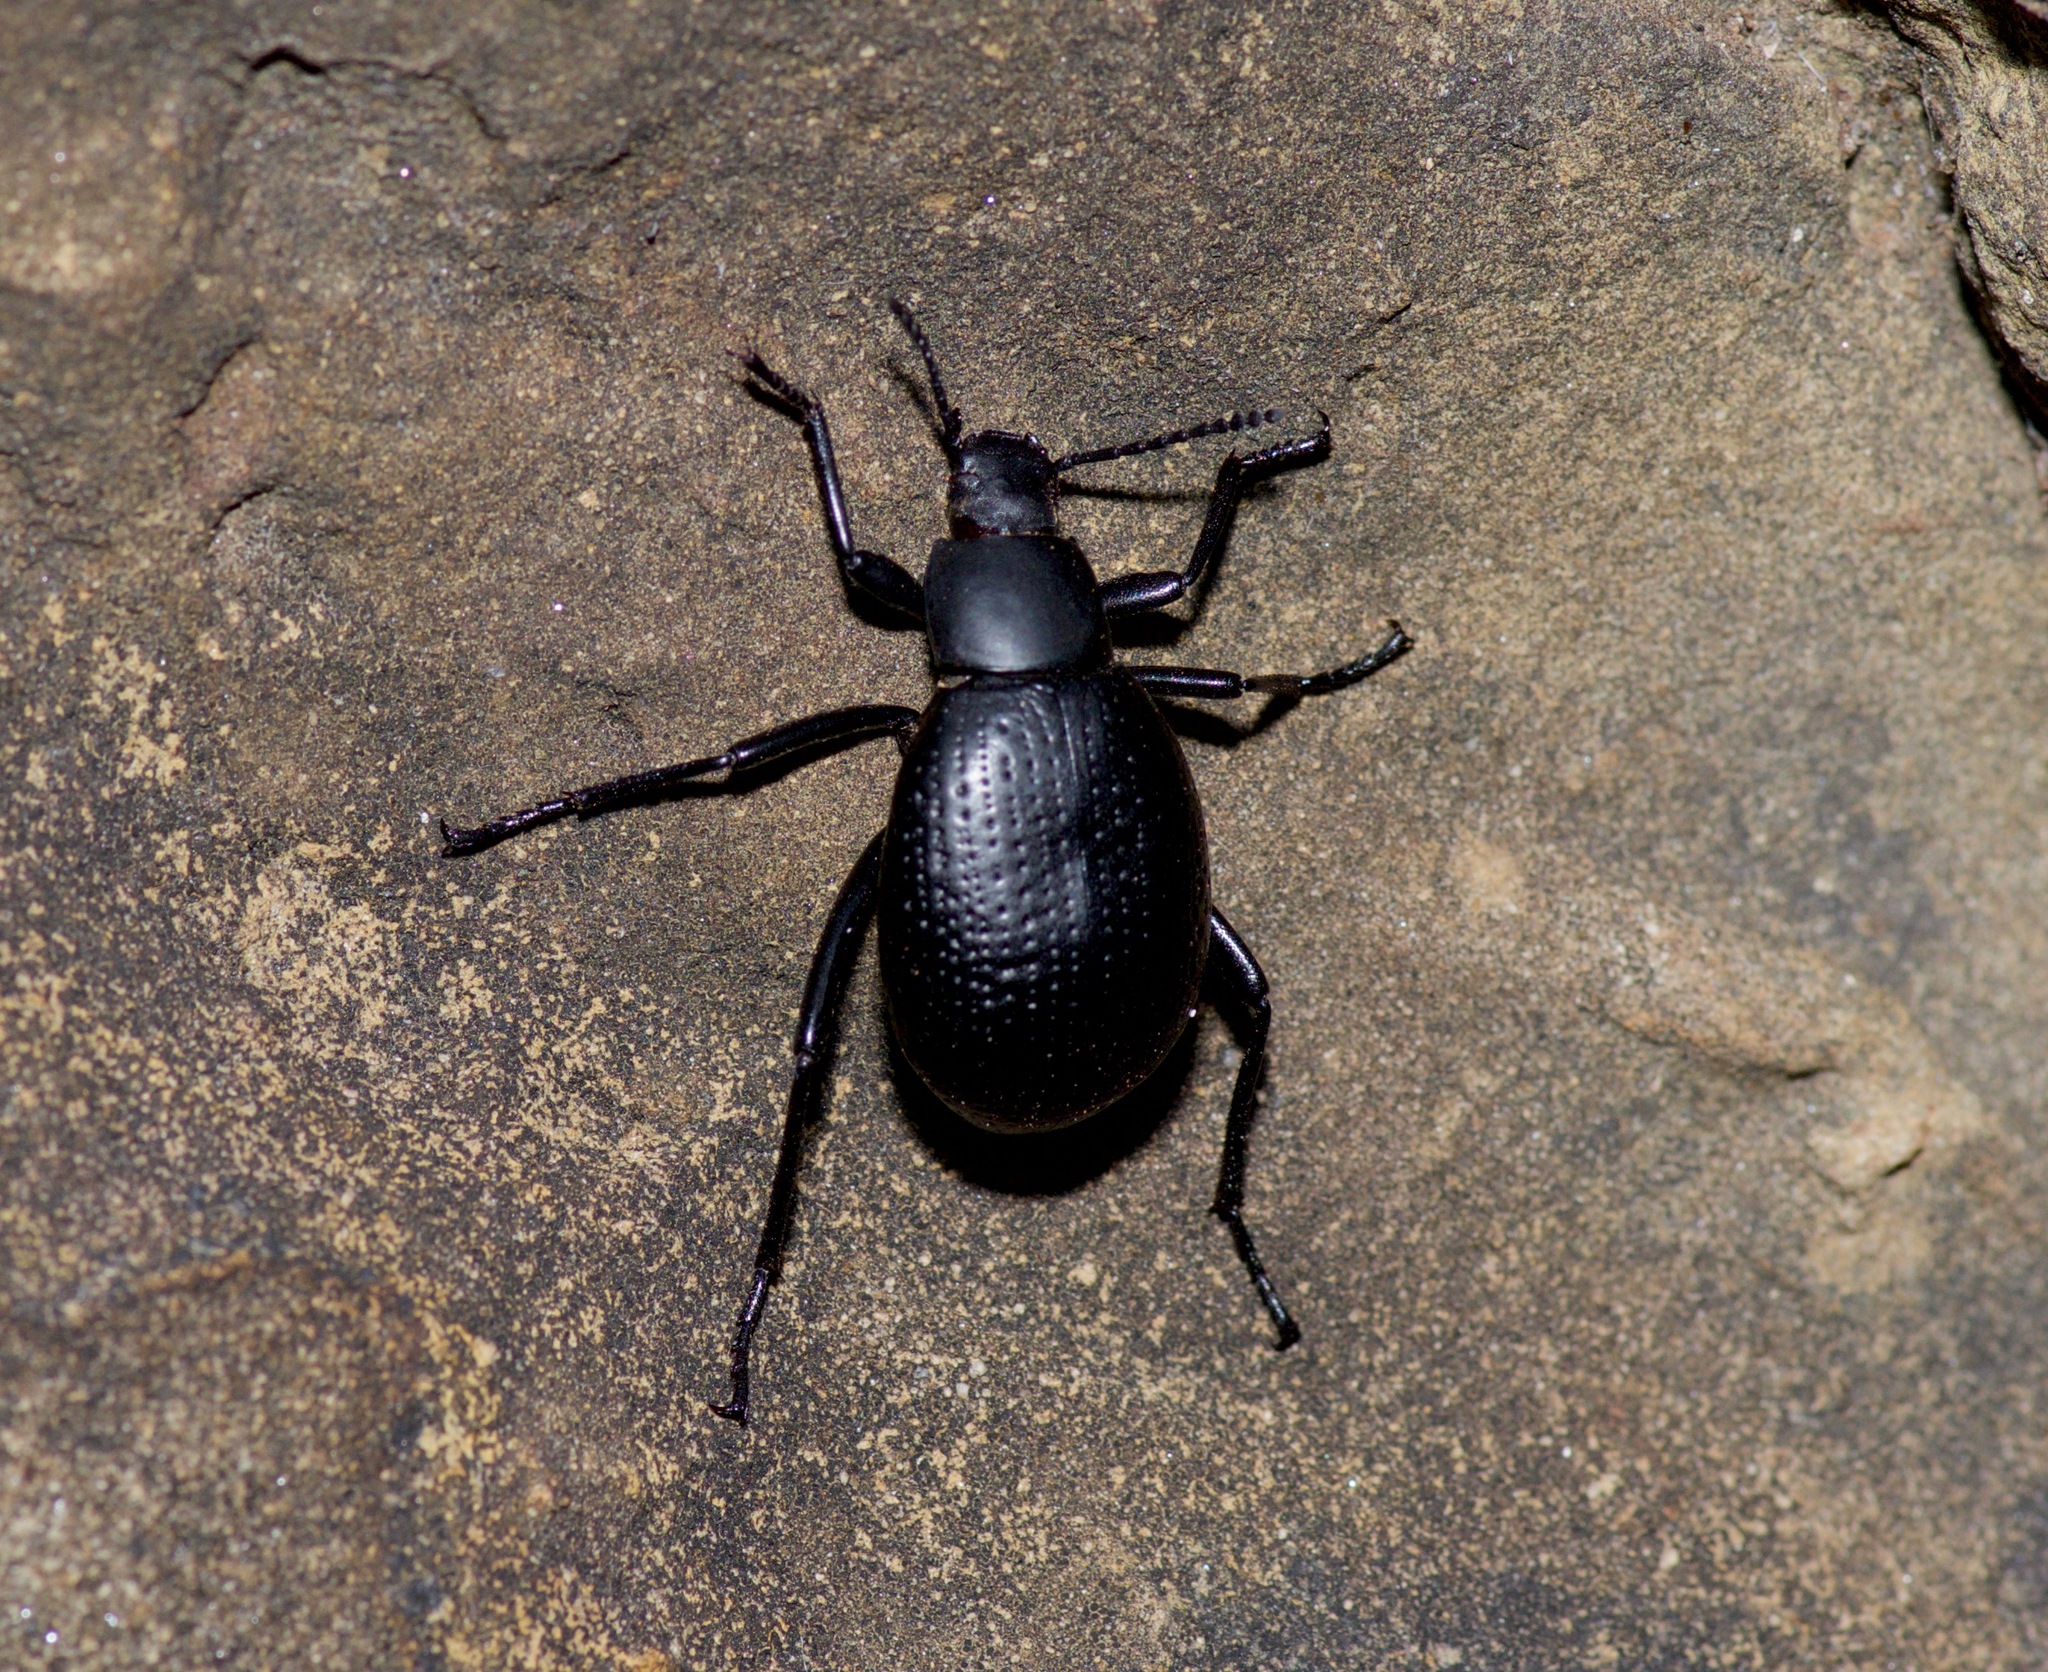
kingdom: Animalia
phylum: Arthropoda
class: Insecta
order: Coleoptera
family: Tenebrionidae
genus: Eleodes
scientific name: Eleodes goryi
